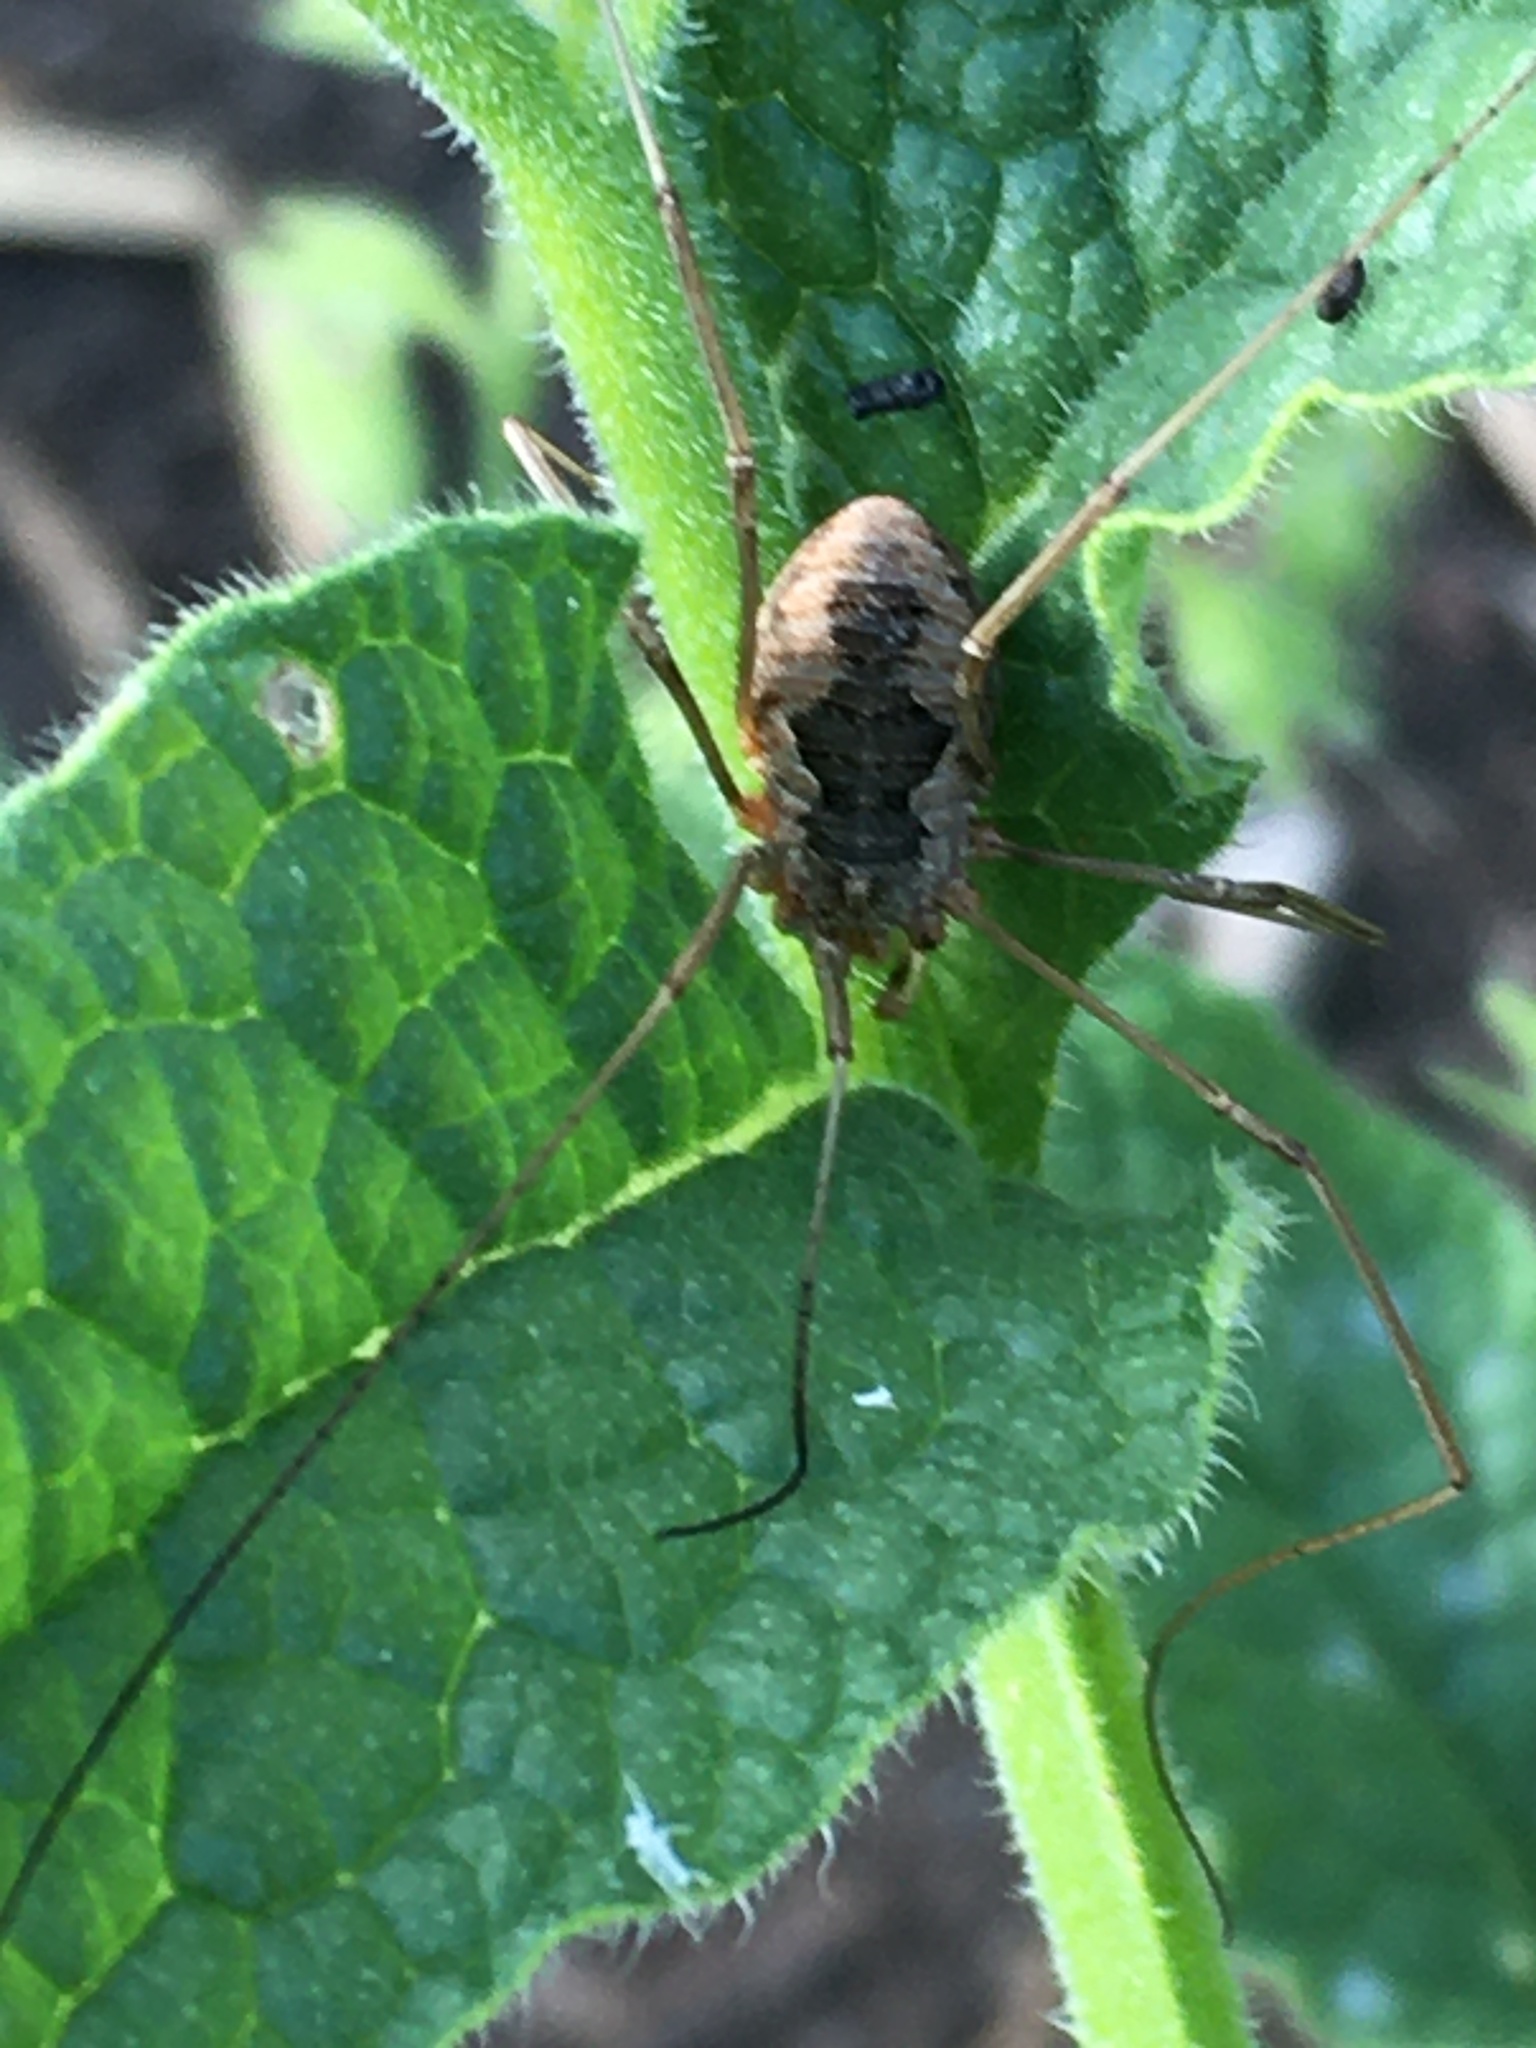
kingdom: Animalia
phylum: Arthropoda
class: Arachnida
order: Opiliones
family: Phalangiidae
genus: Phalangium
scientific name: Phalangium opilio
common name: Daddy longleg
